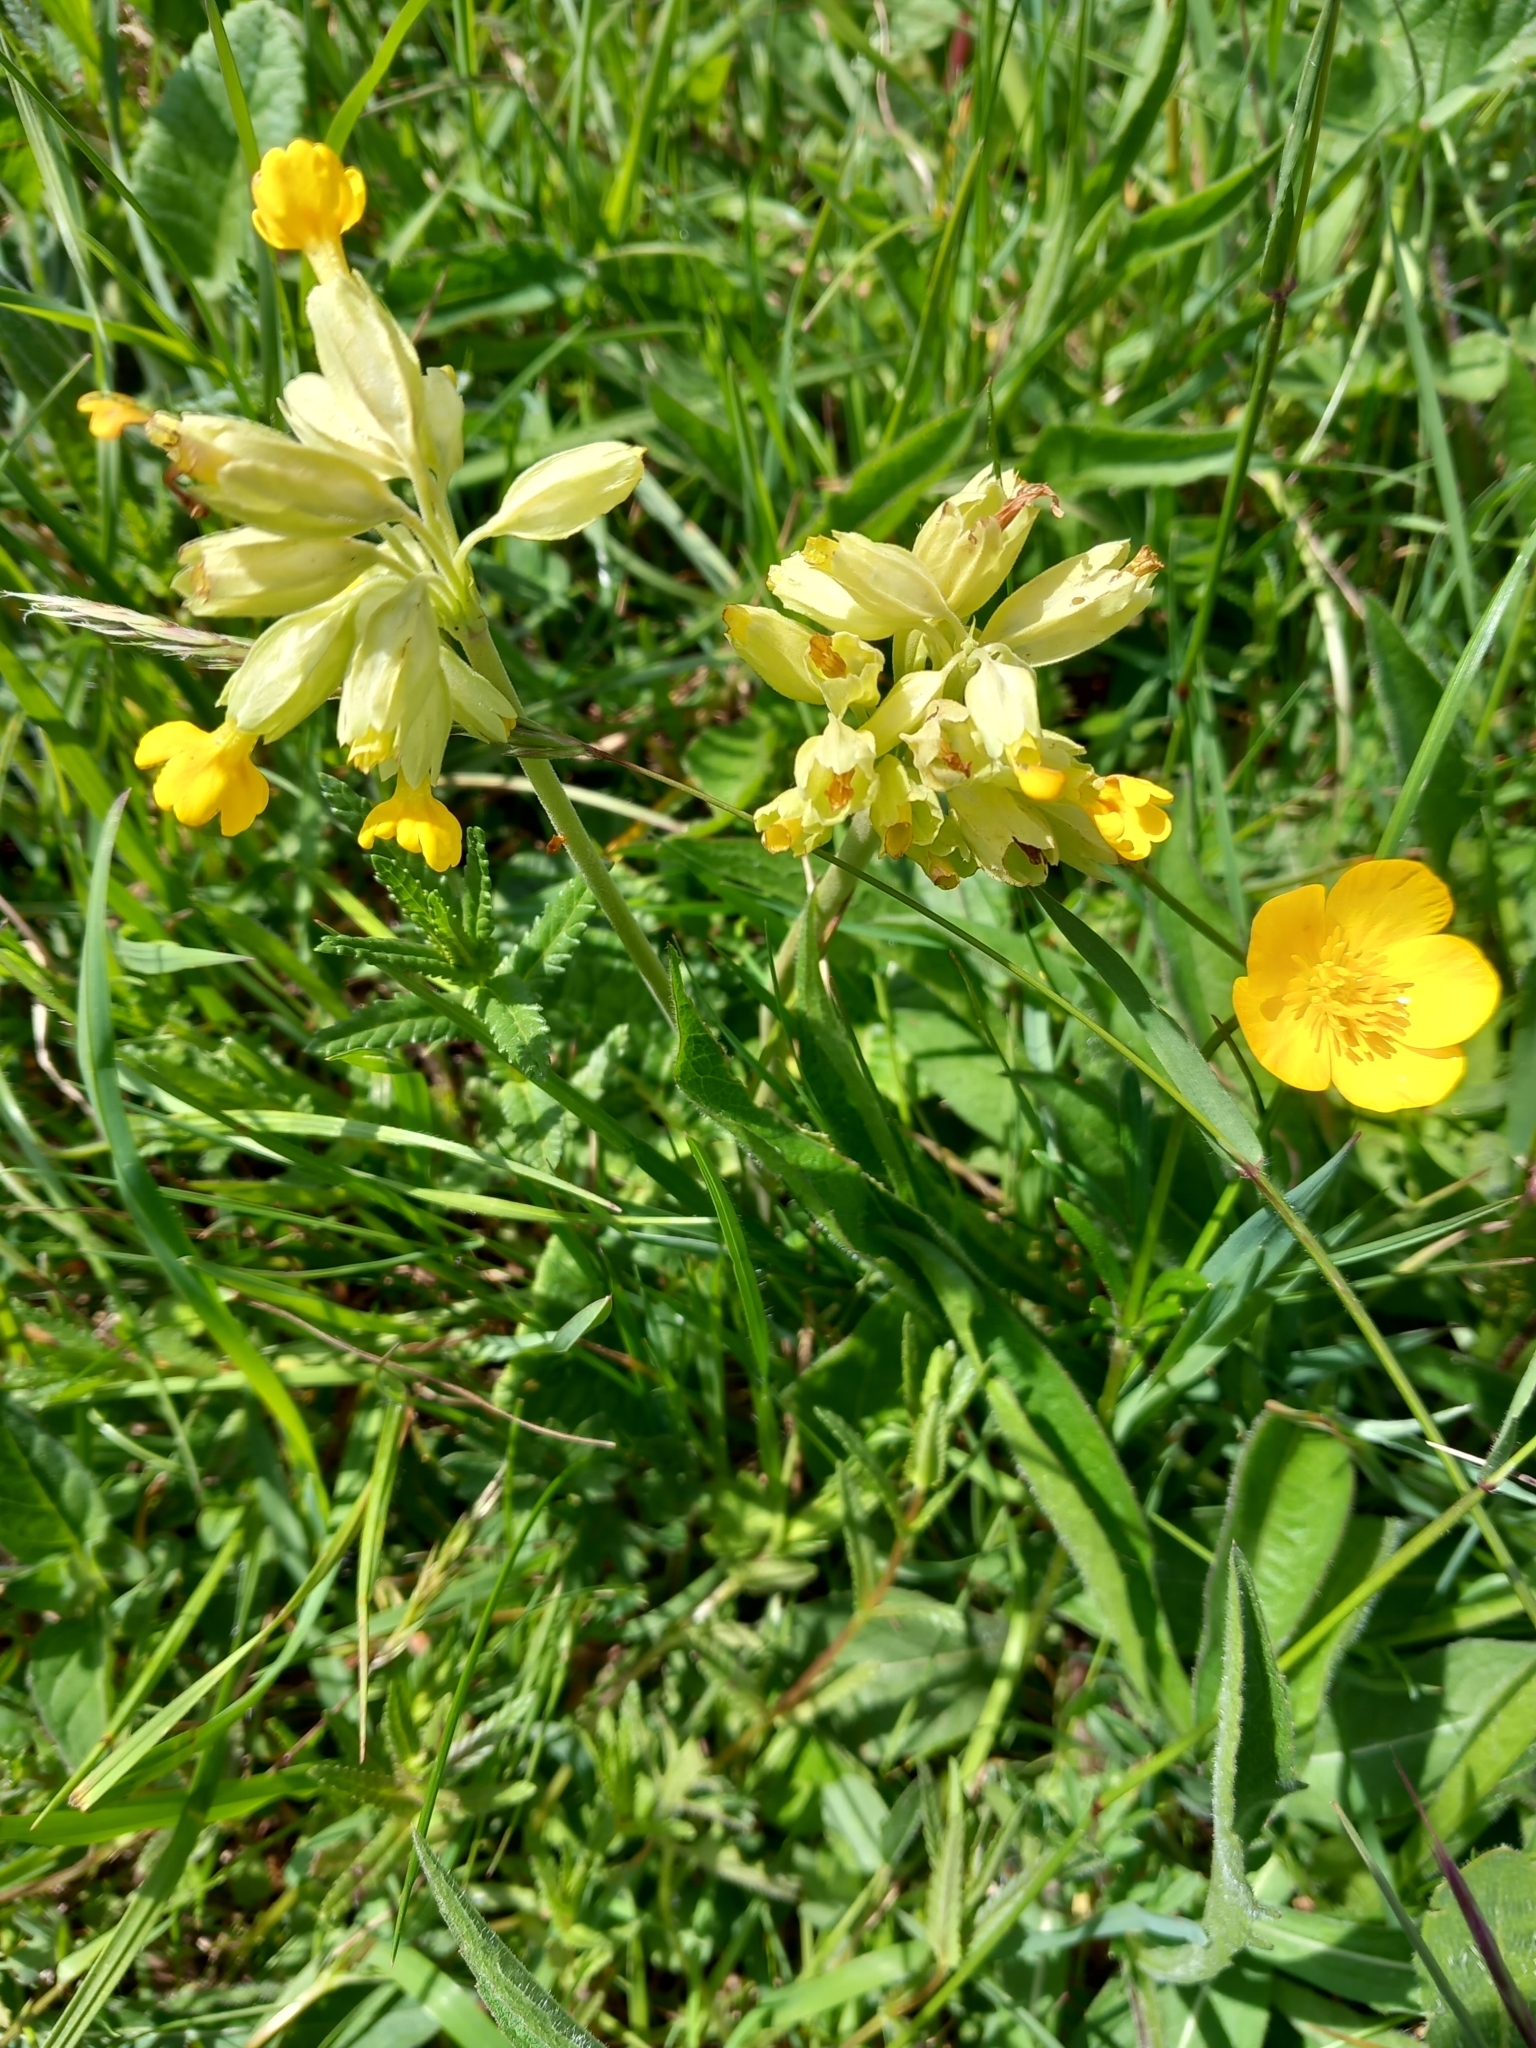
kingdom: Plantae
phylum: Tracheophyta
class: Magnoliopsida
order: Ericales
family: Primulaceae
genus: Primula
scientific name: Primula veris
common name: Cowslip
